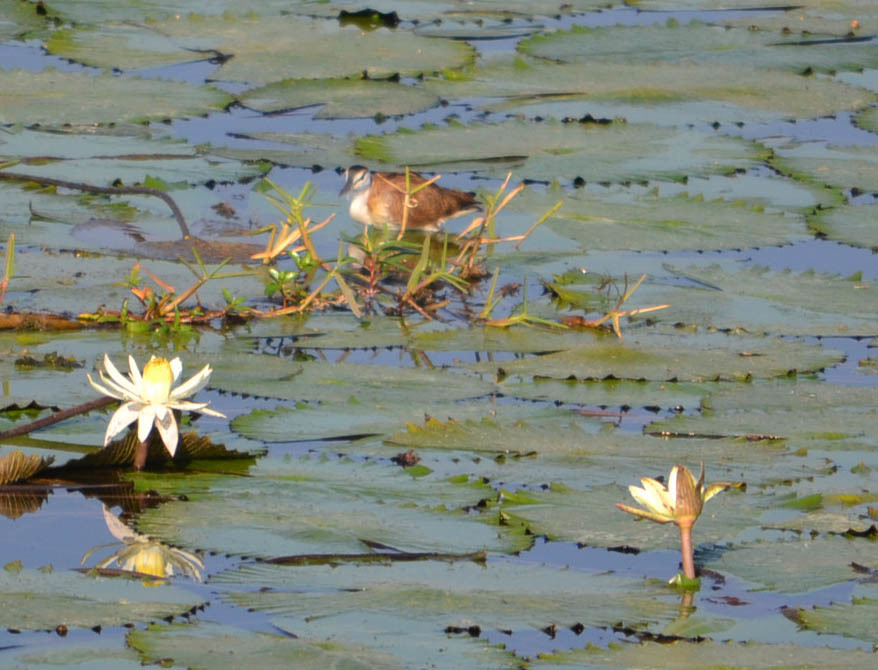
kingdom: Plantae
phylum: Tracheophyta
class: Magnoliopsida
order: Nymphaeales
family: Nymphaeaceae
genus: Nymphaea
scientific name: Nymphaea lotus
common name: White egyptian lotus
